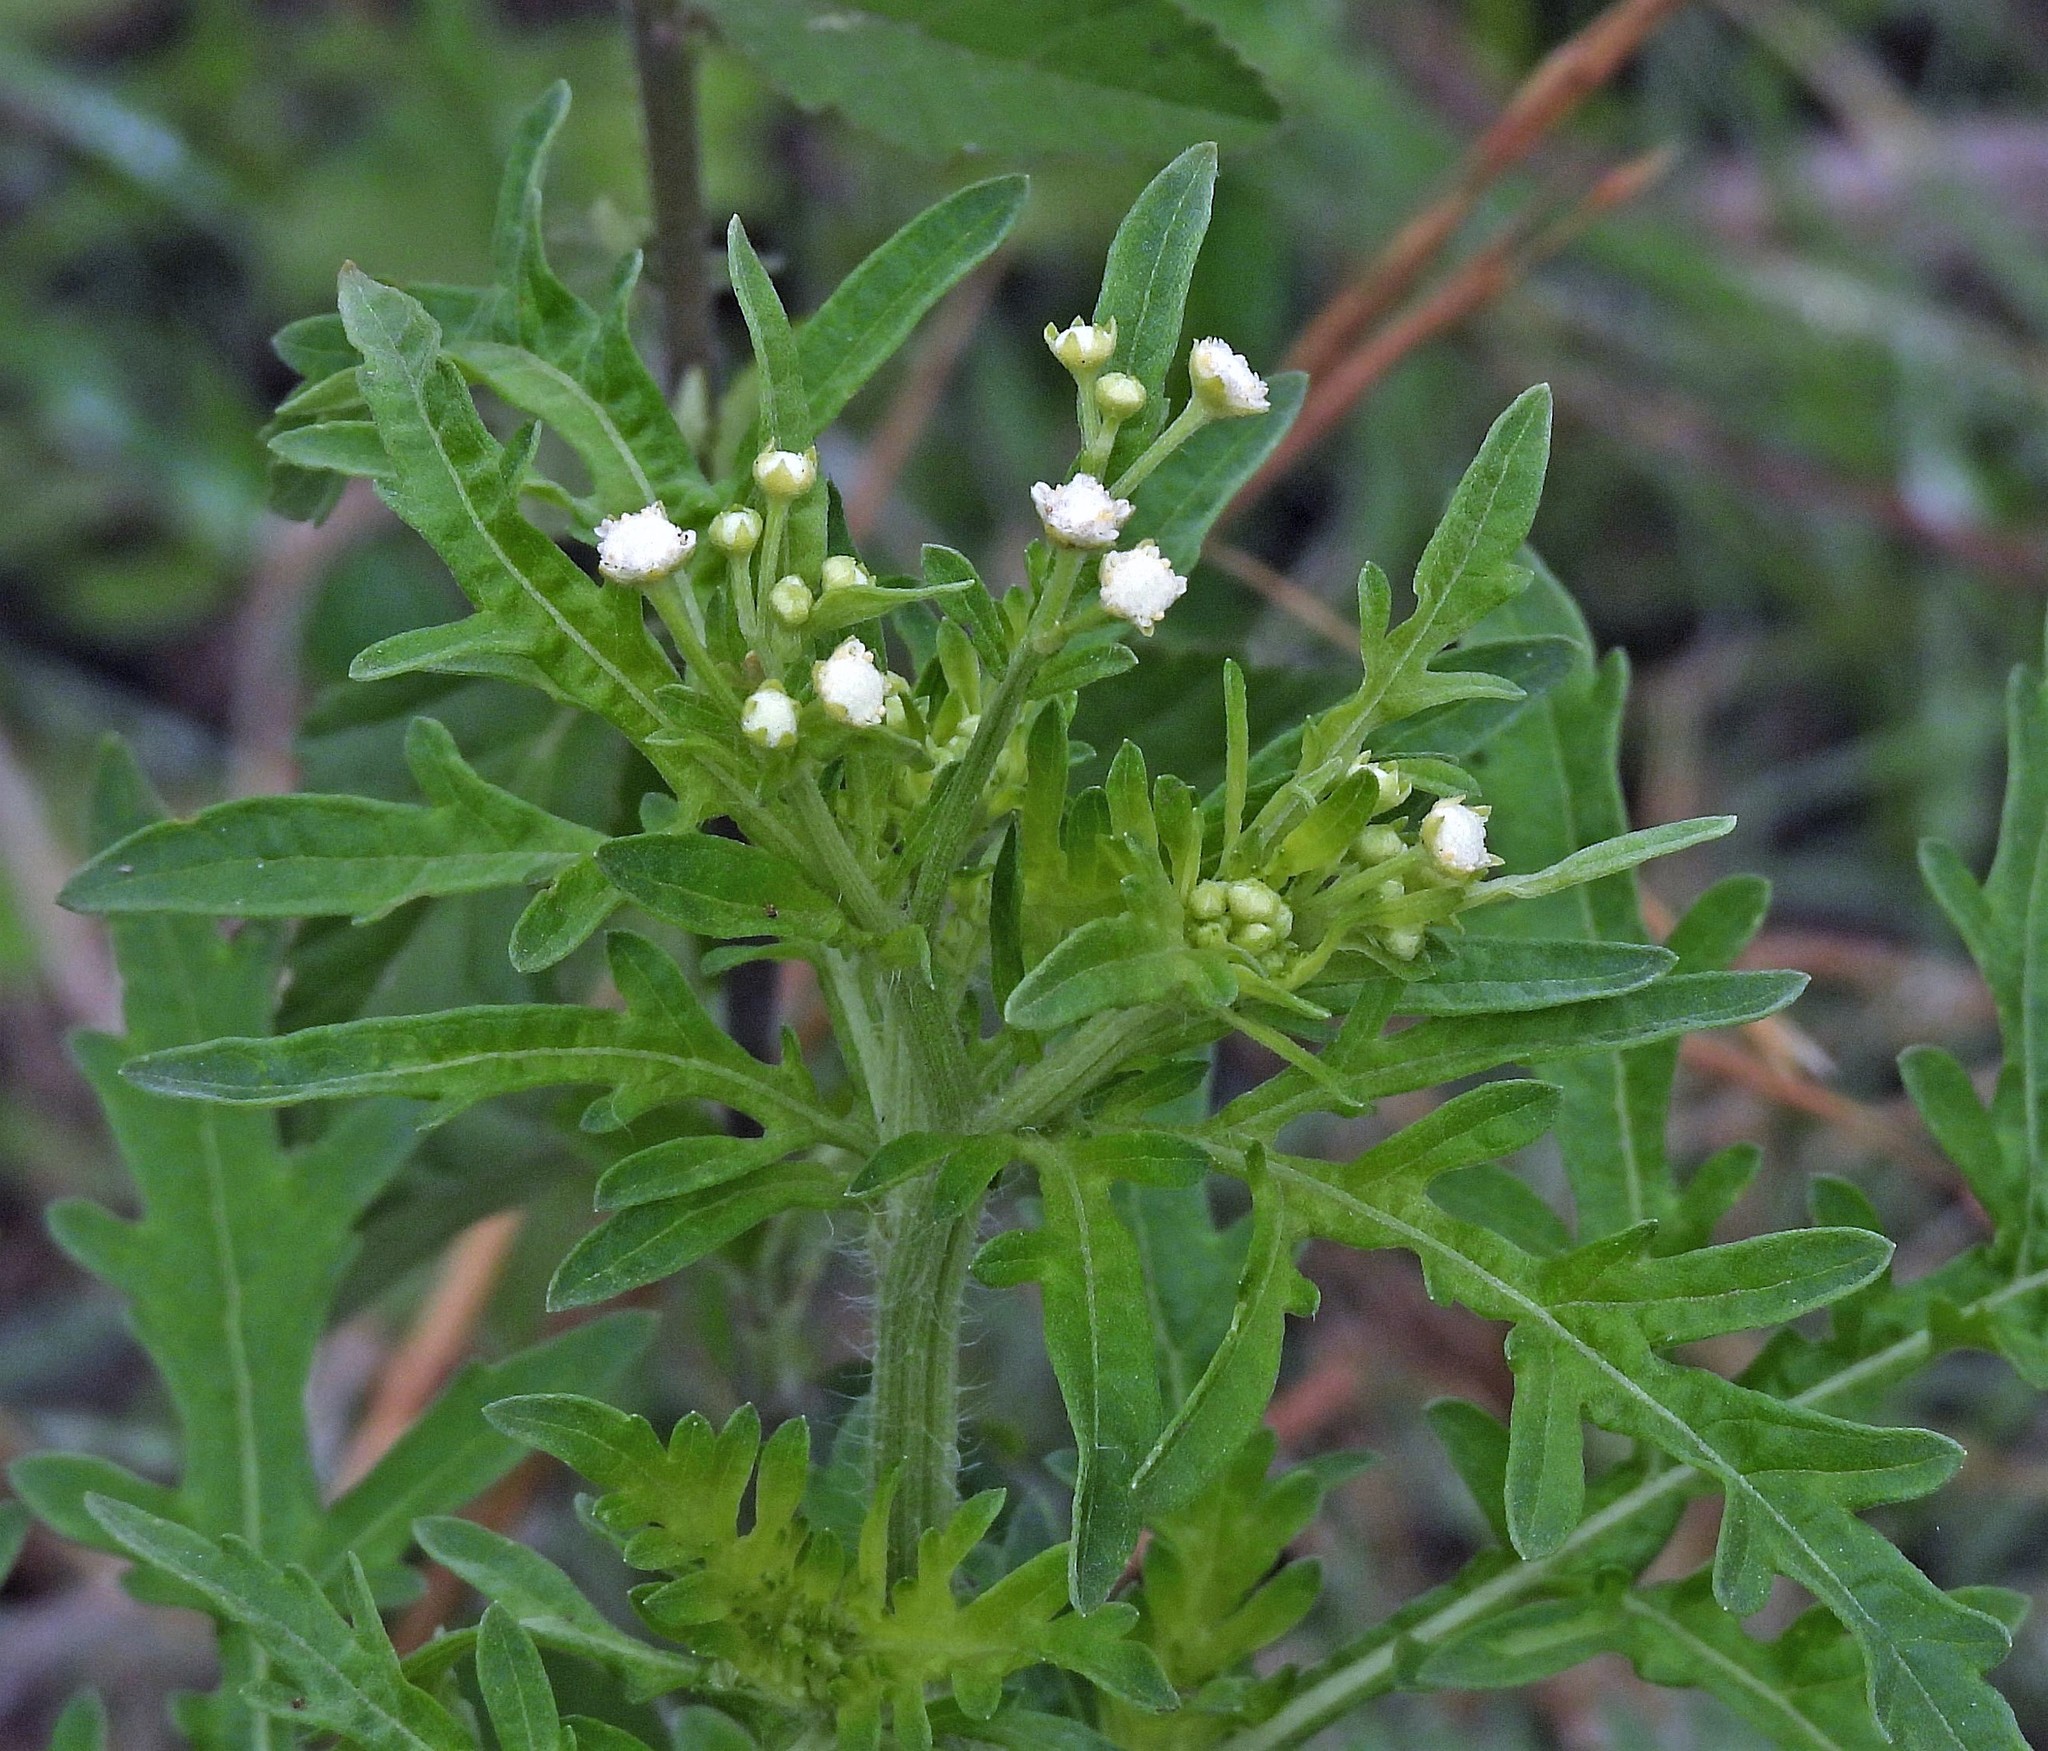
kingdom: Plantae
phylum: Tracheophyta
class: Magnoliopsida
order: Asterales
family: Asteraceae
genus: Parthenium
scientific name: Parthenium hysterophorus
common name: Santa maria feverfew
